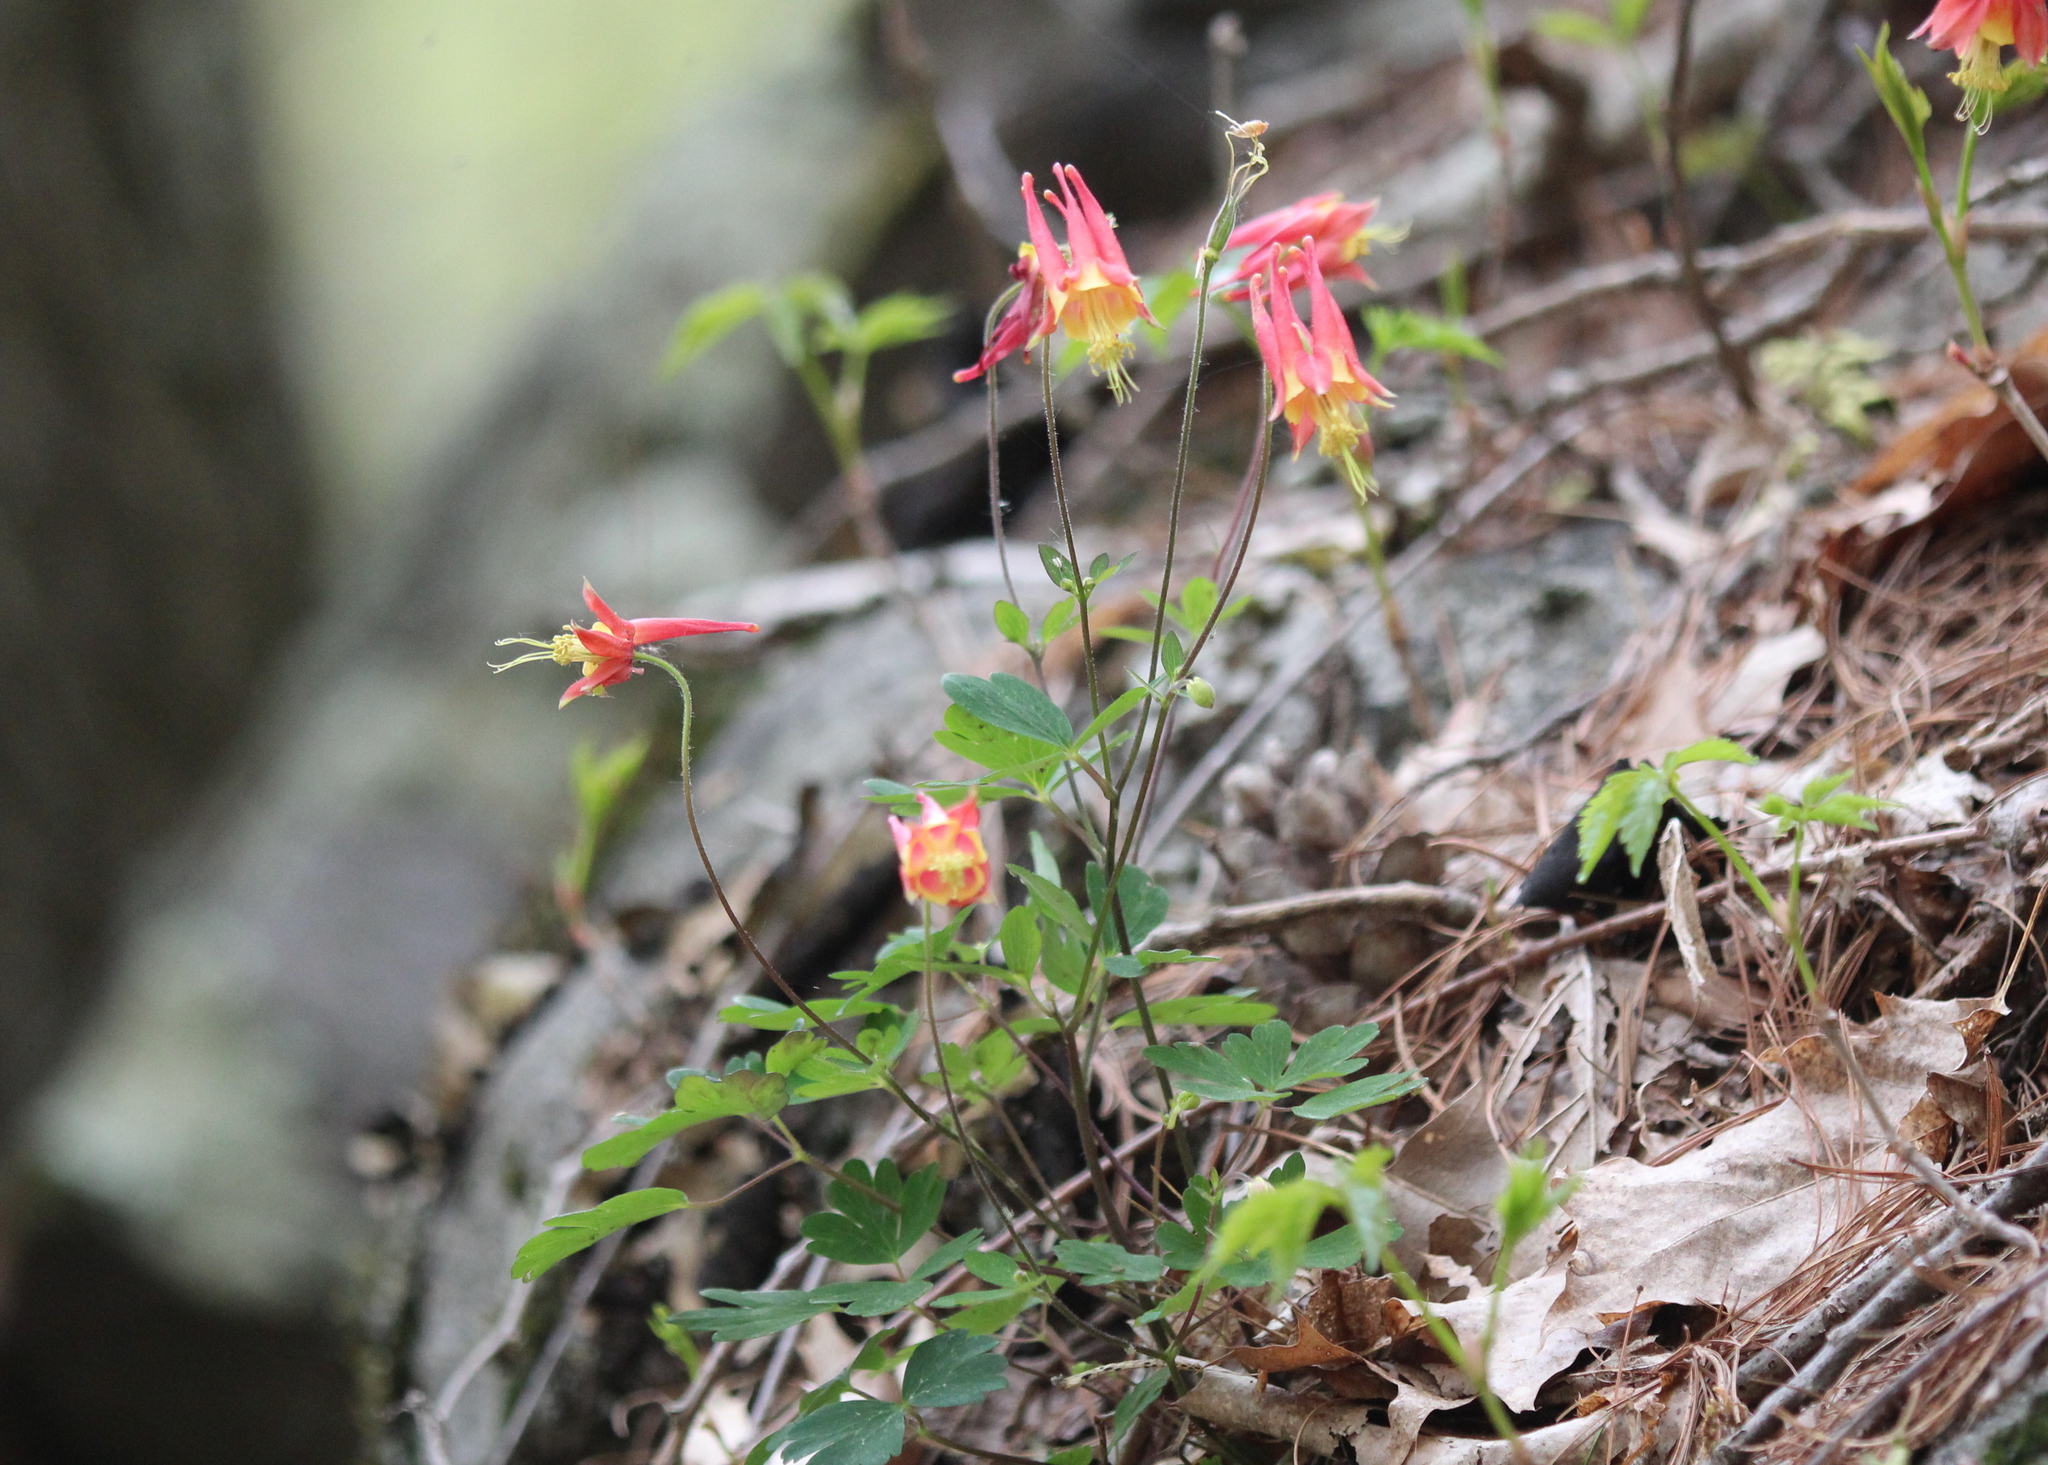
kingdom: Plantae
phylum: Tracheophyta
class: Magnoliopsida
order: Ranunculales
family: Ranunculaceae
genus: Aquilegia
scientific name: Aquilegia canadensis
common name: American columbine
